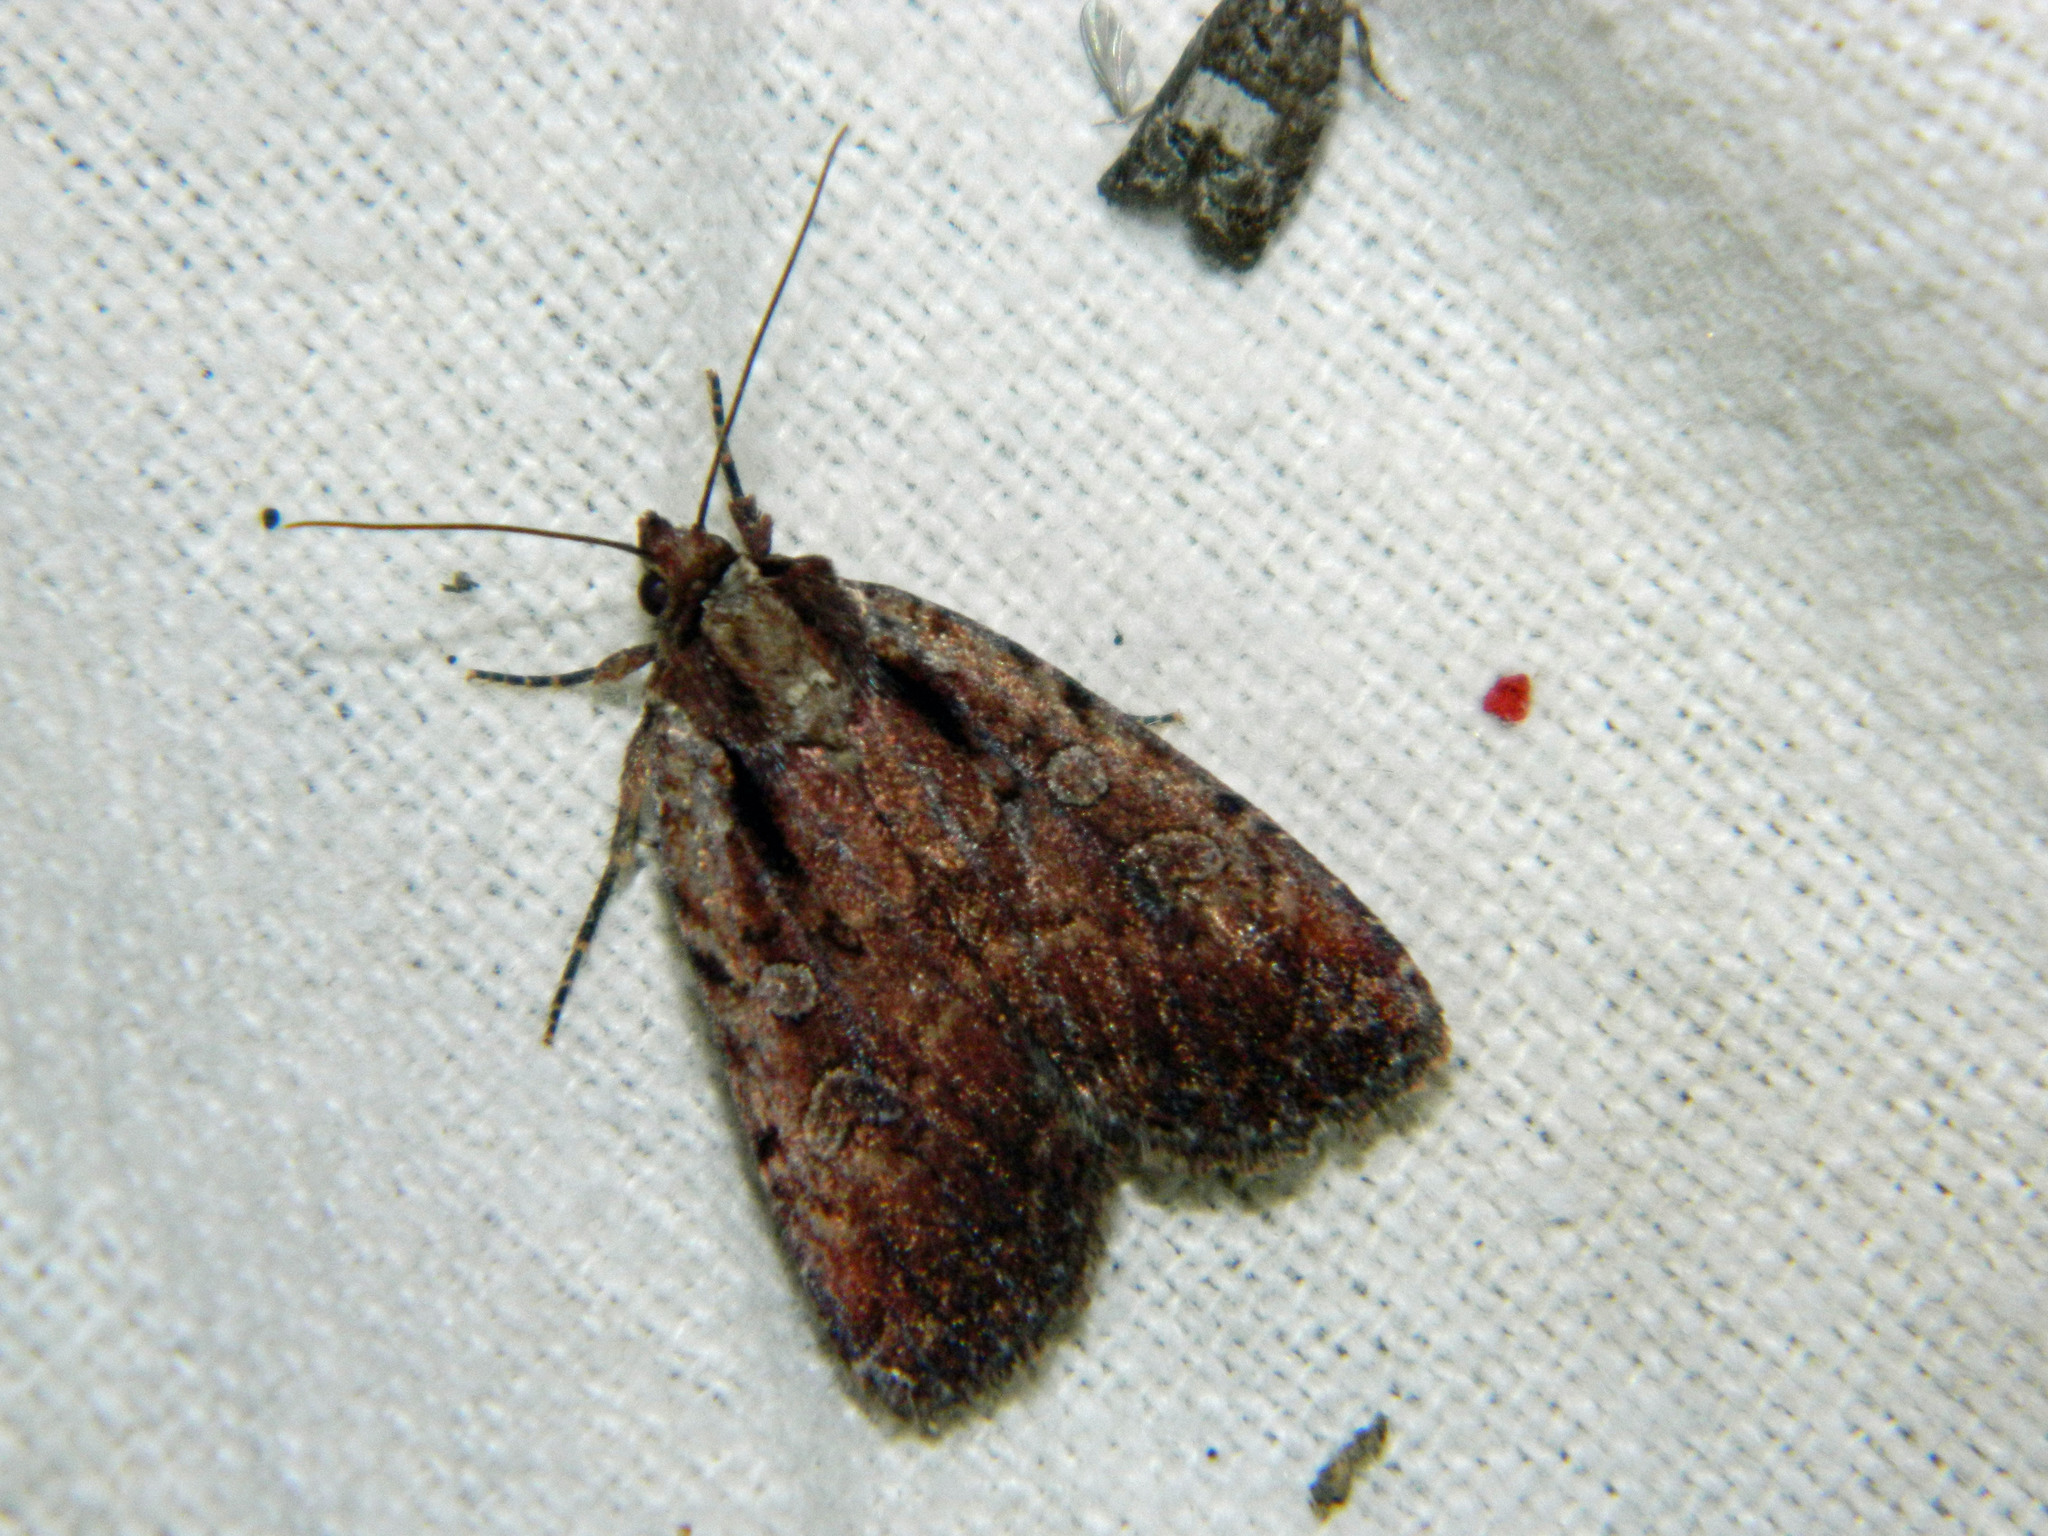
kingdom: Animalia
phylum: Arthropoda
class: Insecta
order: Lepidoptera
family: Noctuidae
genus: Eueretagrotis
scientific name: Eueretagrotis attentus
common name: Attentive dart
